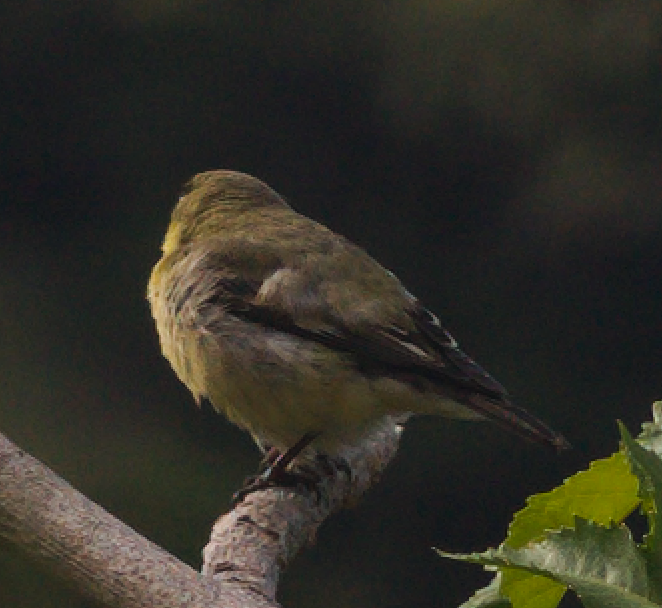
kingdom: Animalia
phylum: Chordata
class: Aves
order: Passeriformes
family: Fringillidae
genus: Spinus
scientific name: Spinus psaltria
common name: Lesser goldfinch
